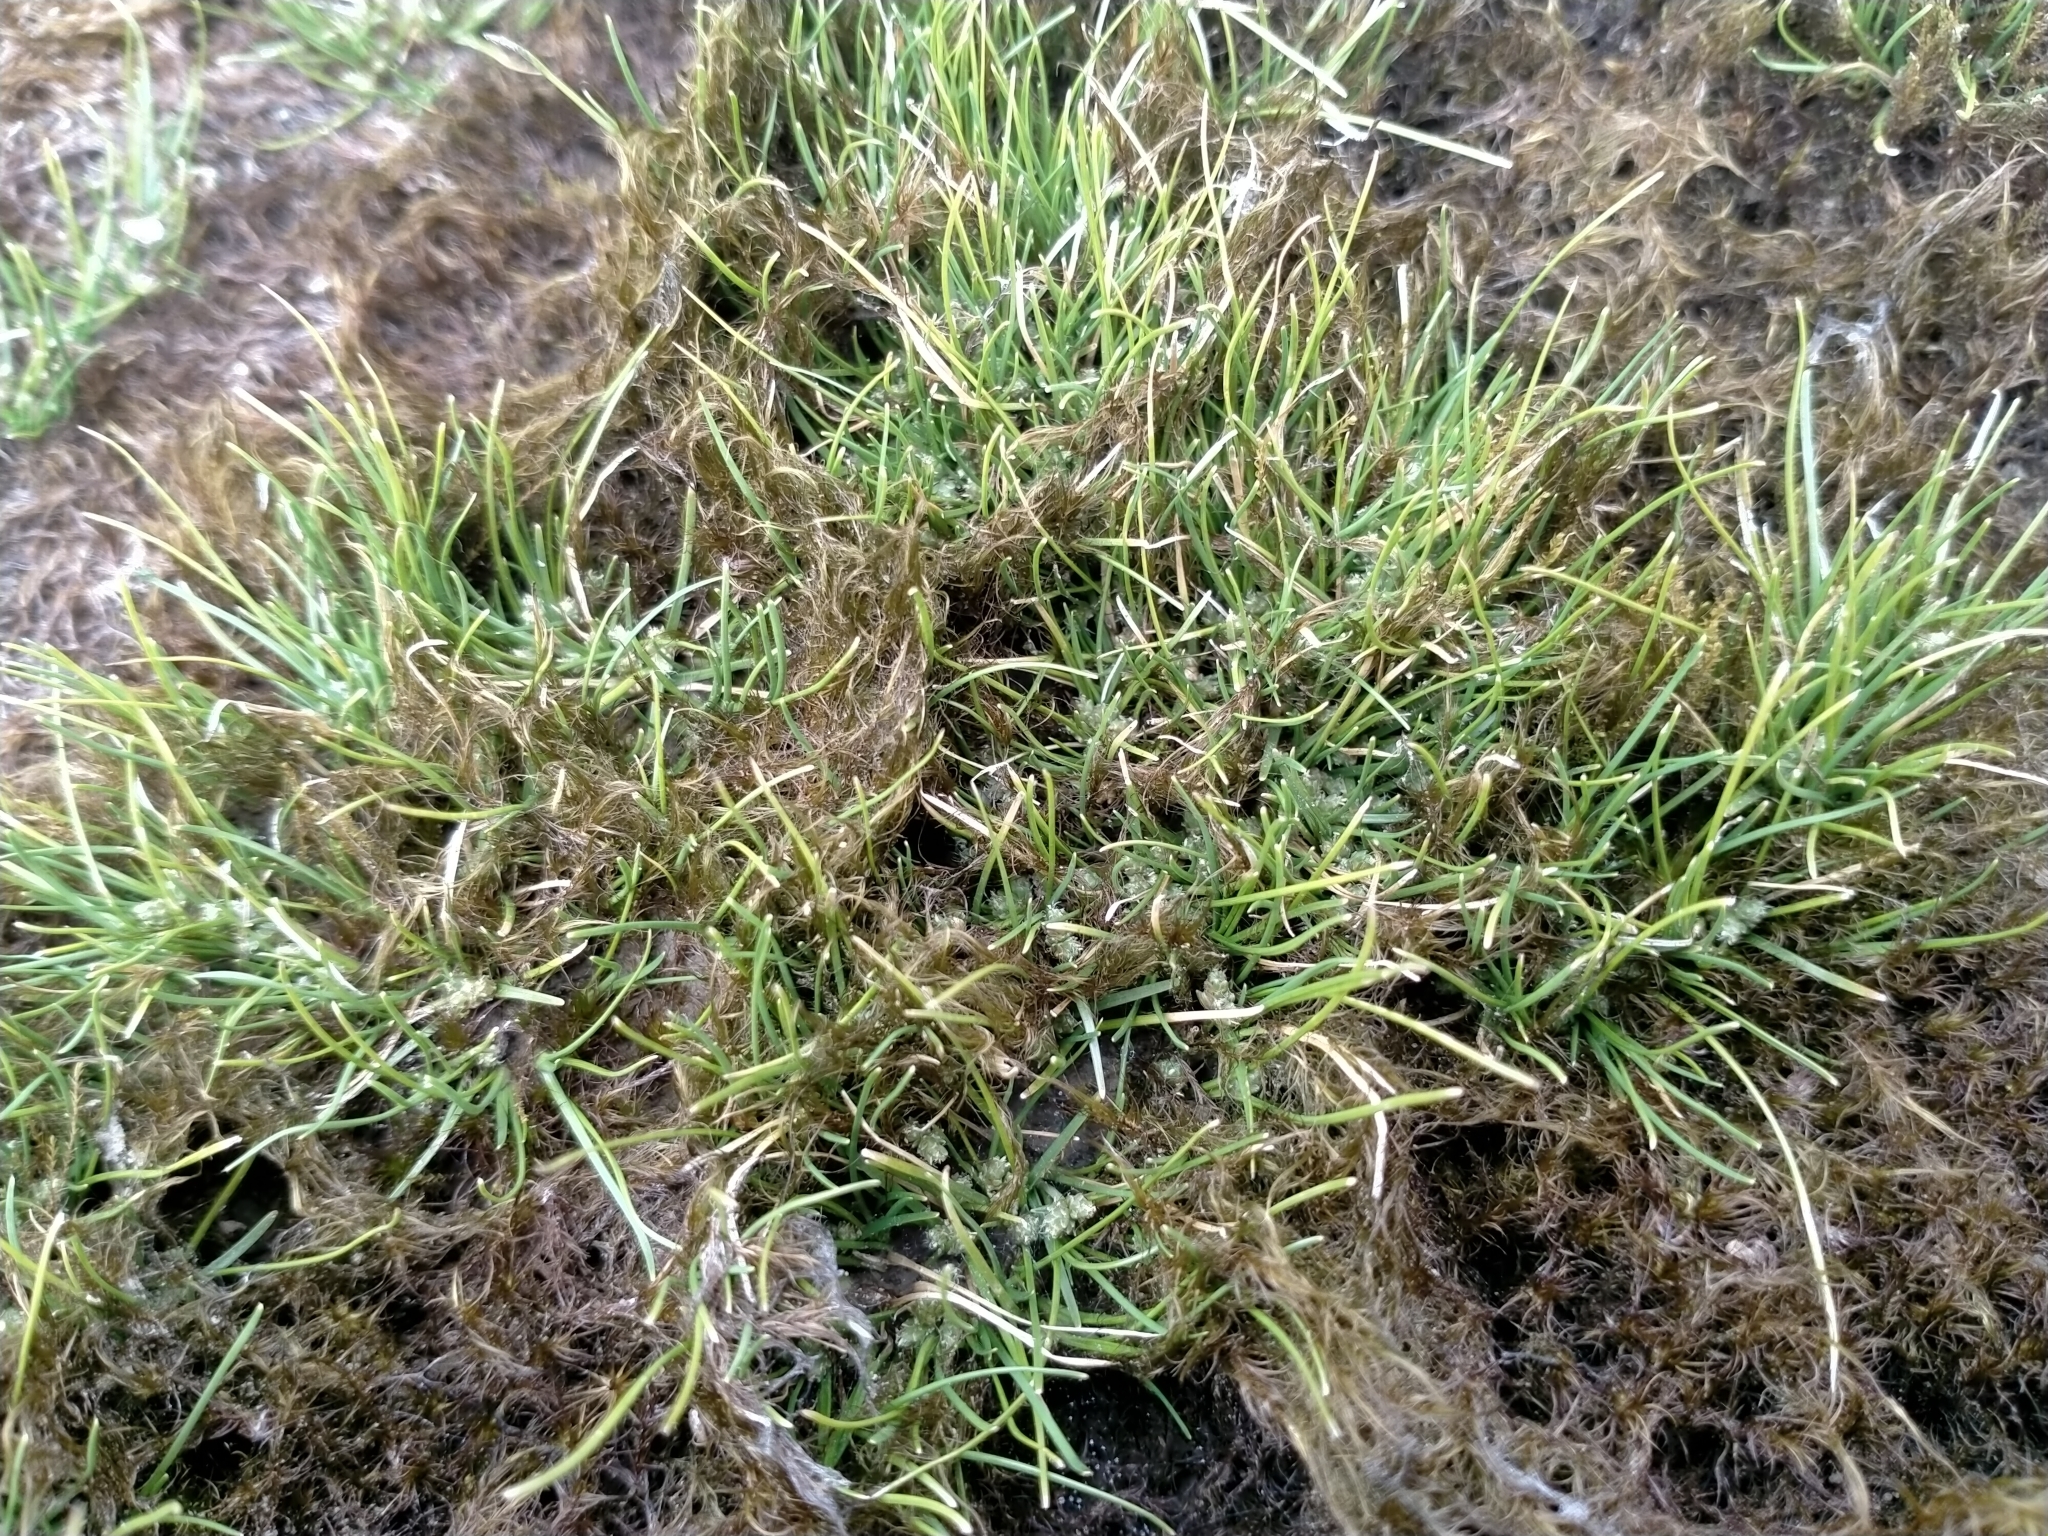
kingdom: Plantae
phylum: Tracheophyta
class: Liliopsida
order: Poales
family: Cyperaceae
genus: Isolepis
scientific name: Isolepis basilaris
